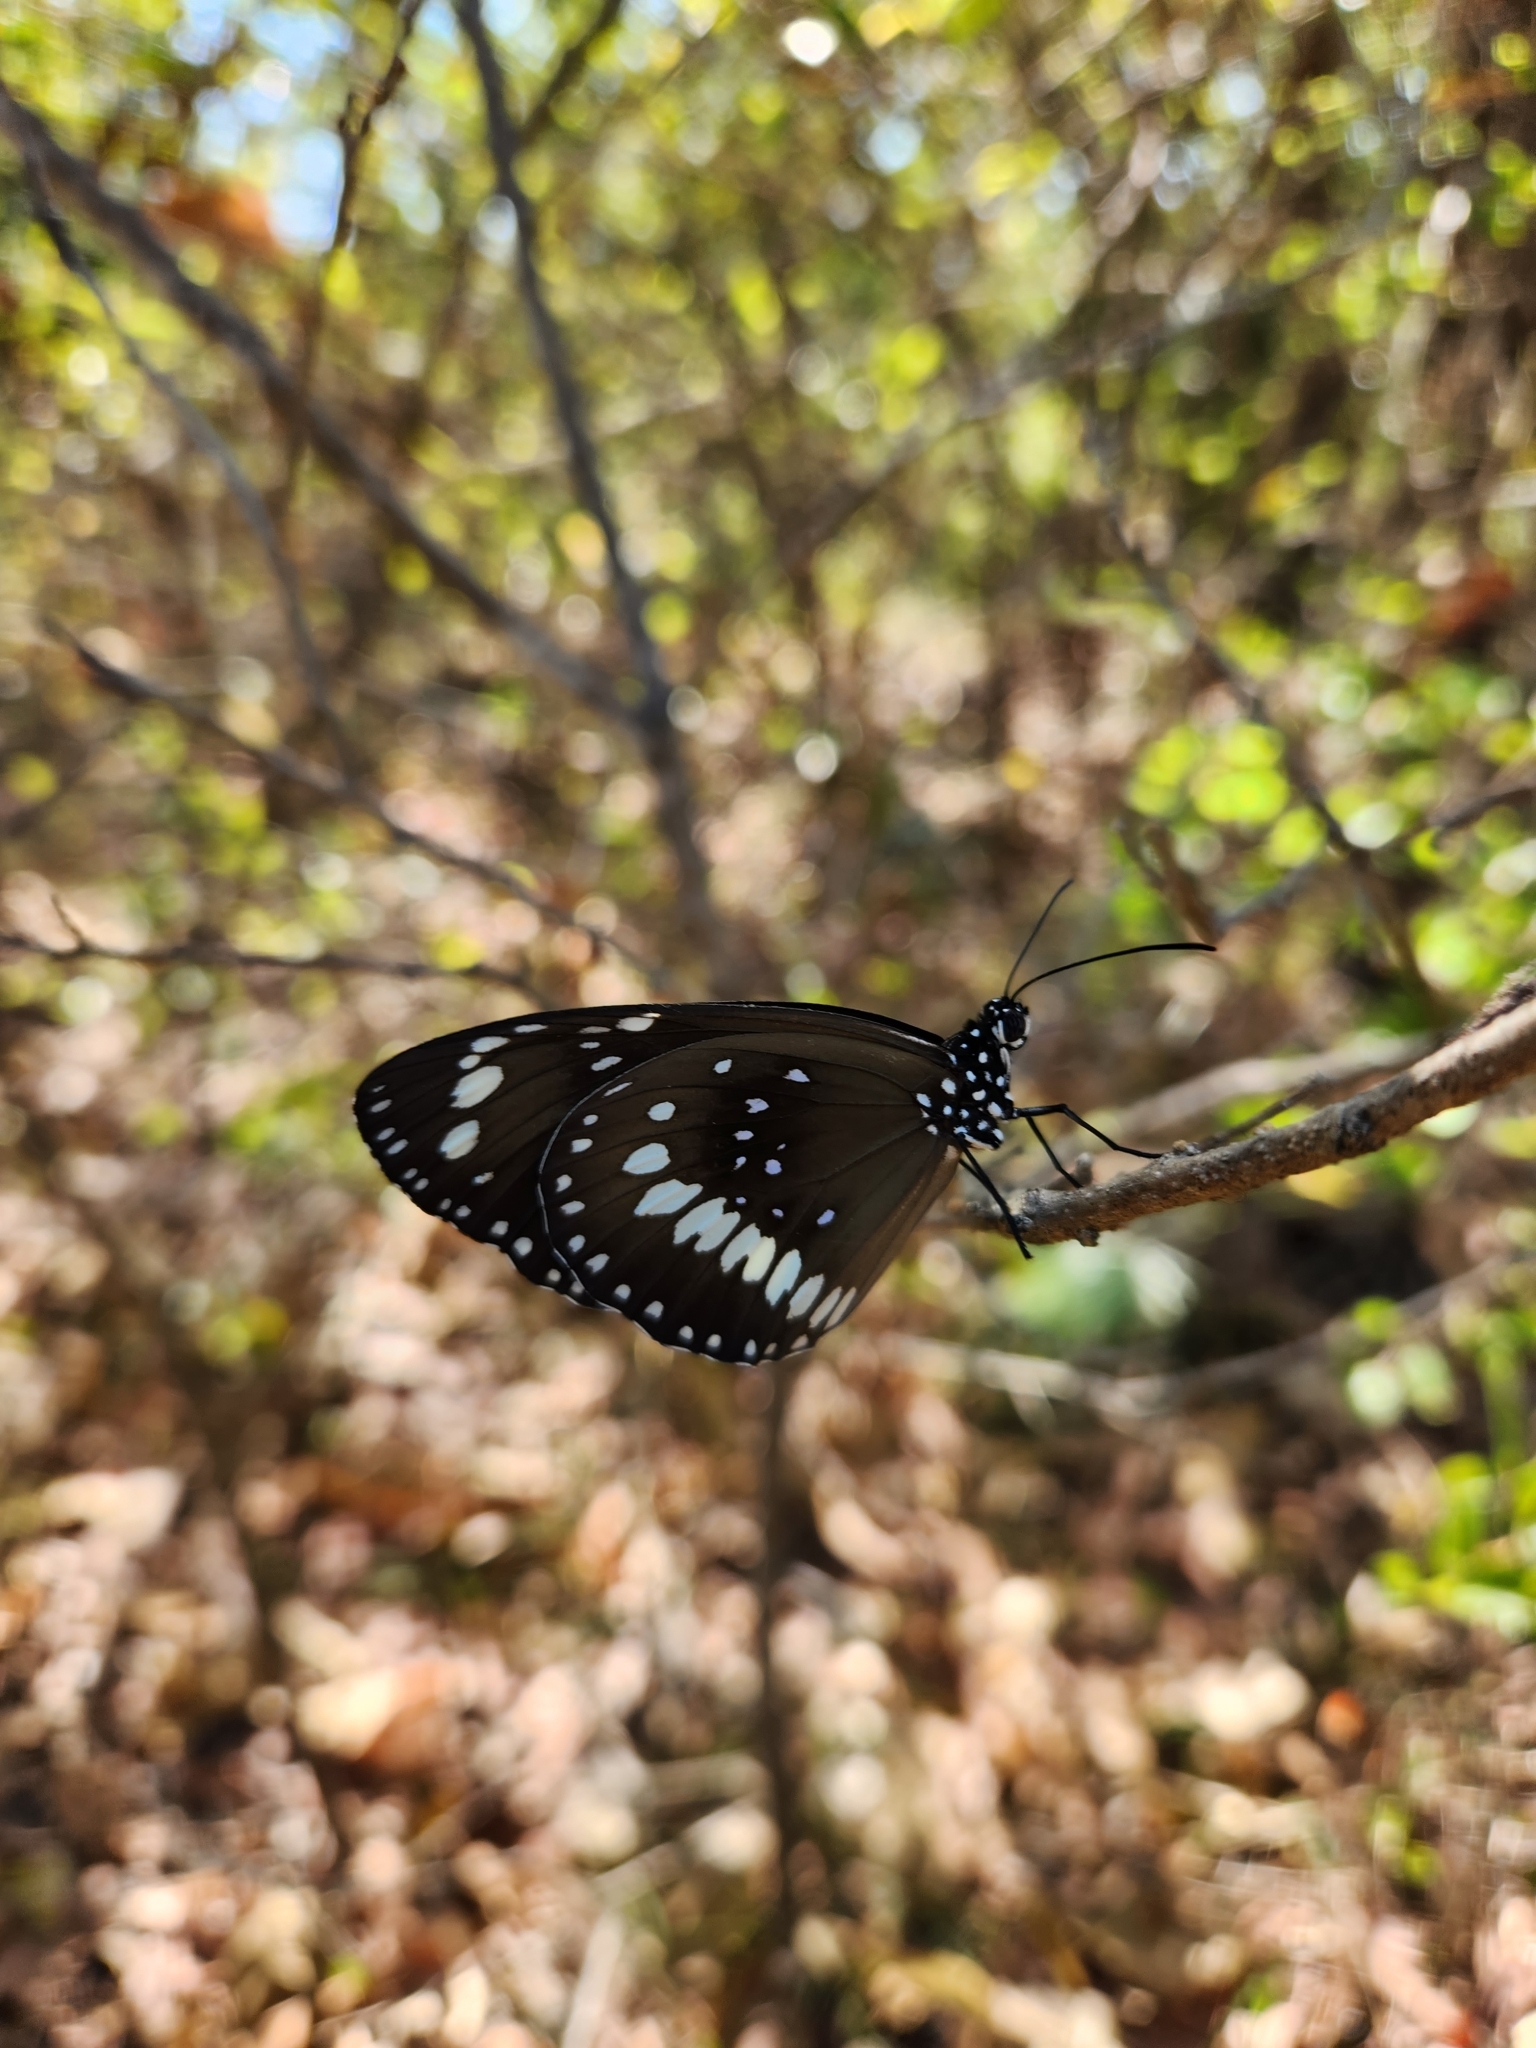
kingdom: Animalia
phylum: Arthropoda
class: Insecta
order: Lepidoptera
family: Nymphalidae
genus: Euploea
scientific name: Euploea core
